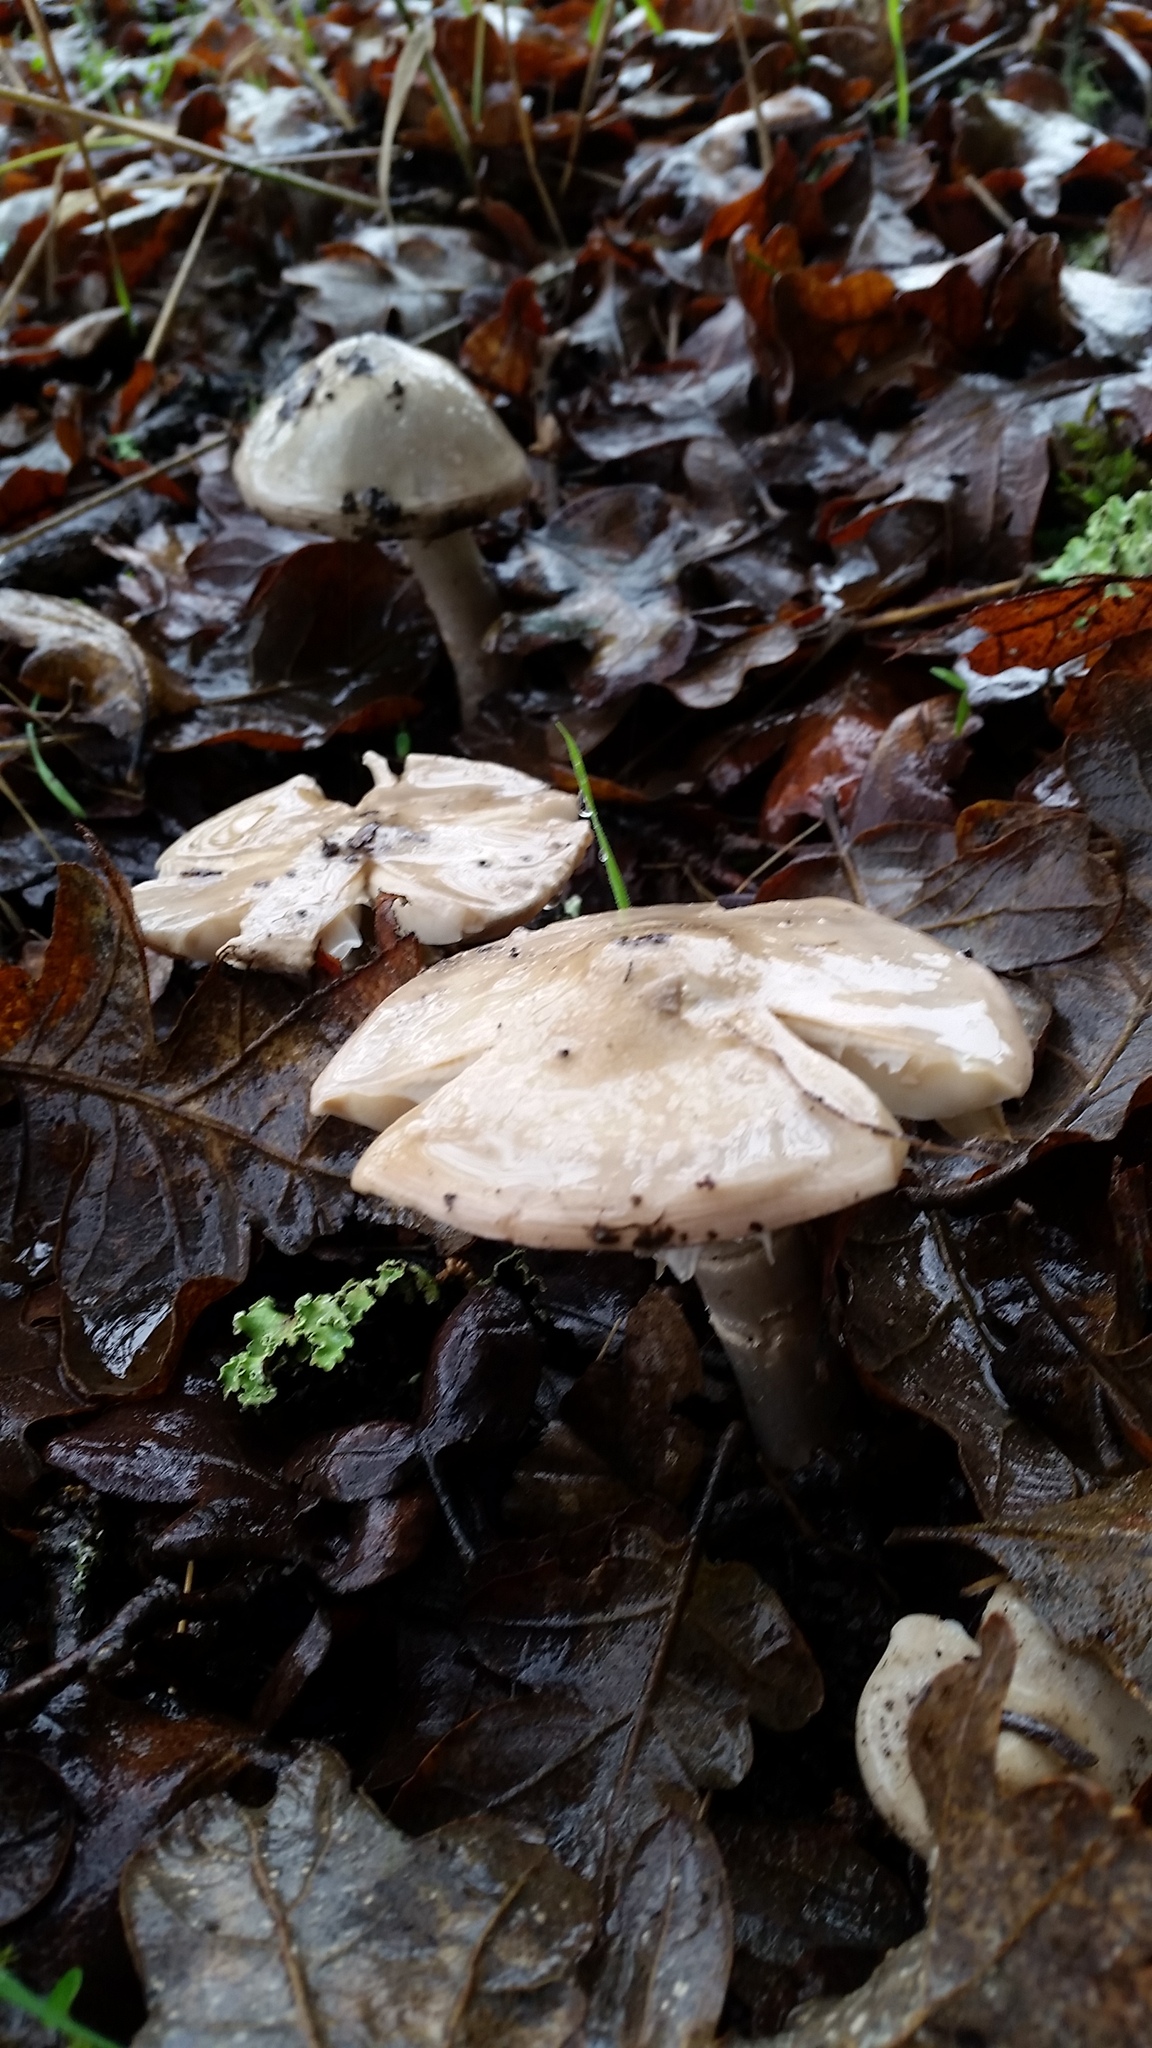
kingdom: Fungi
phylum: Basidiomycota
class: Agaricomycetes
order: Agaricales
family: Inocybaceae
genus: Inocybe
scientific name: Inocybe insinuata
